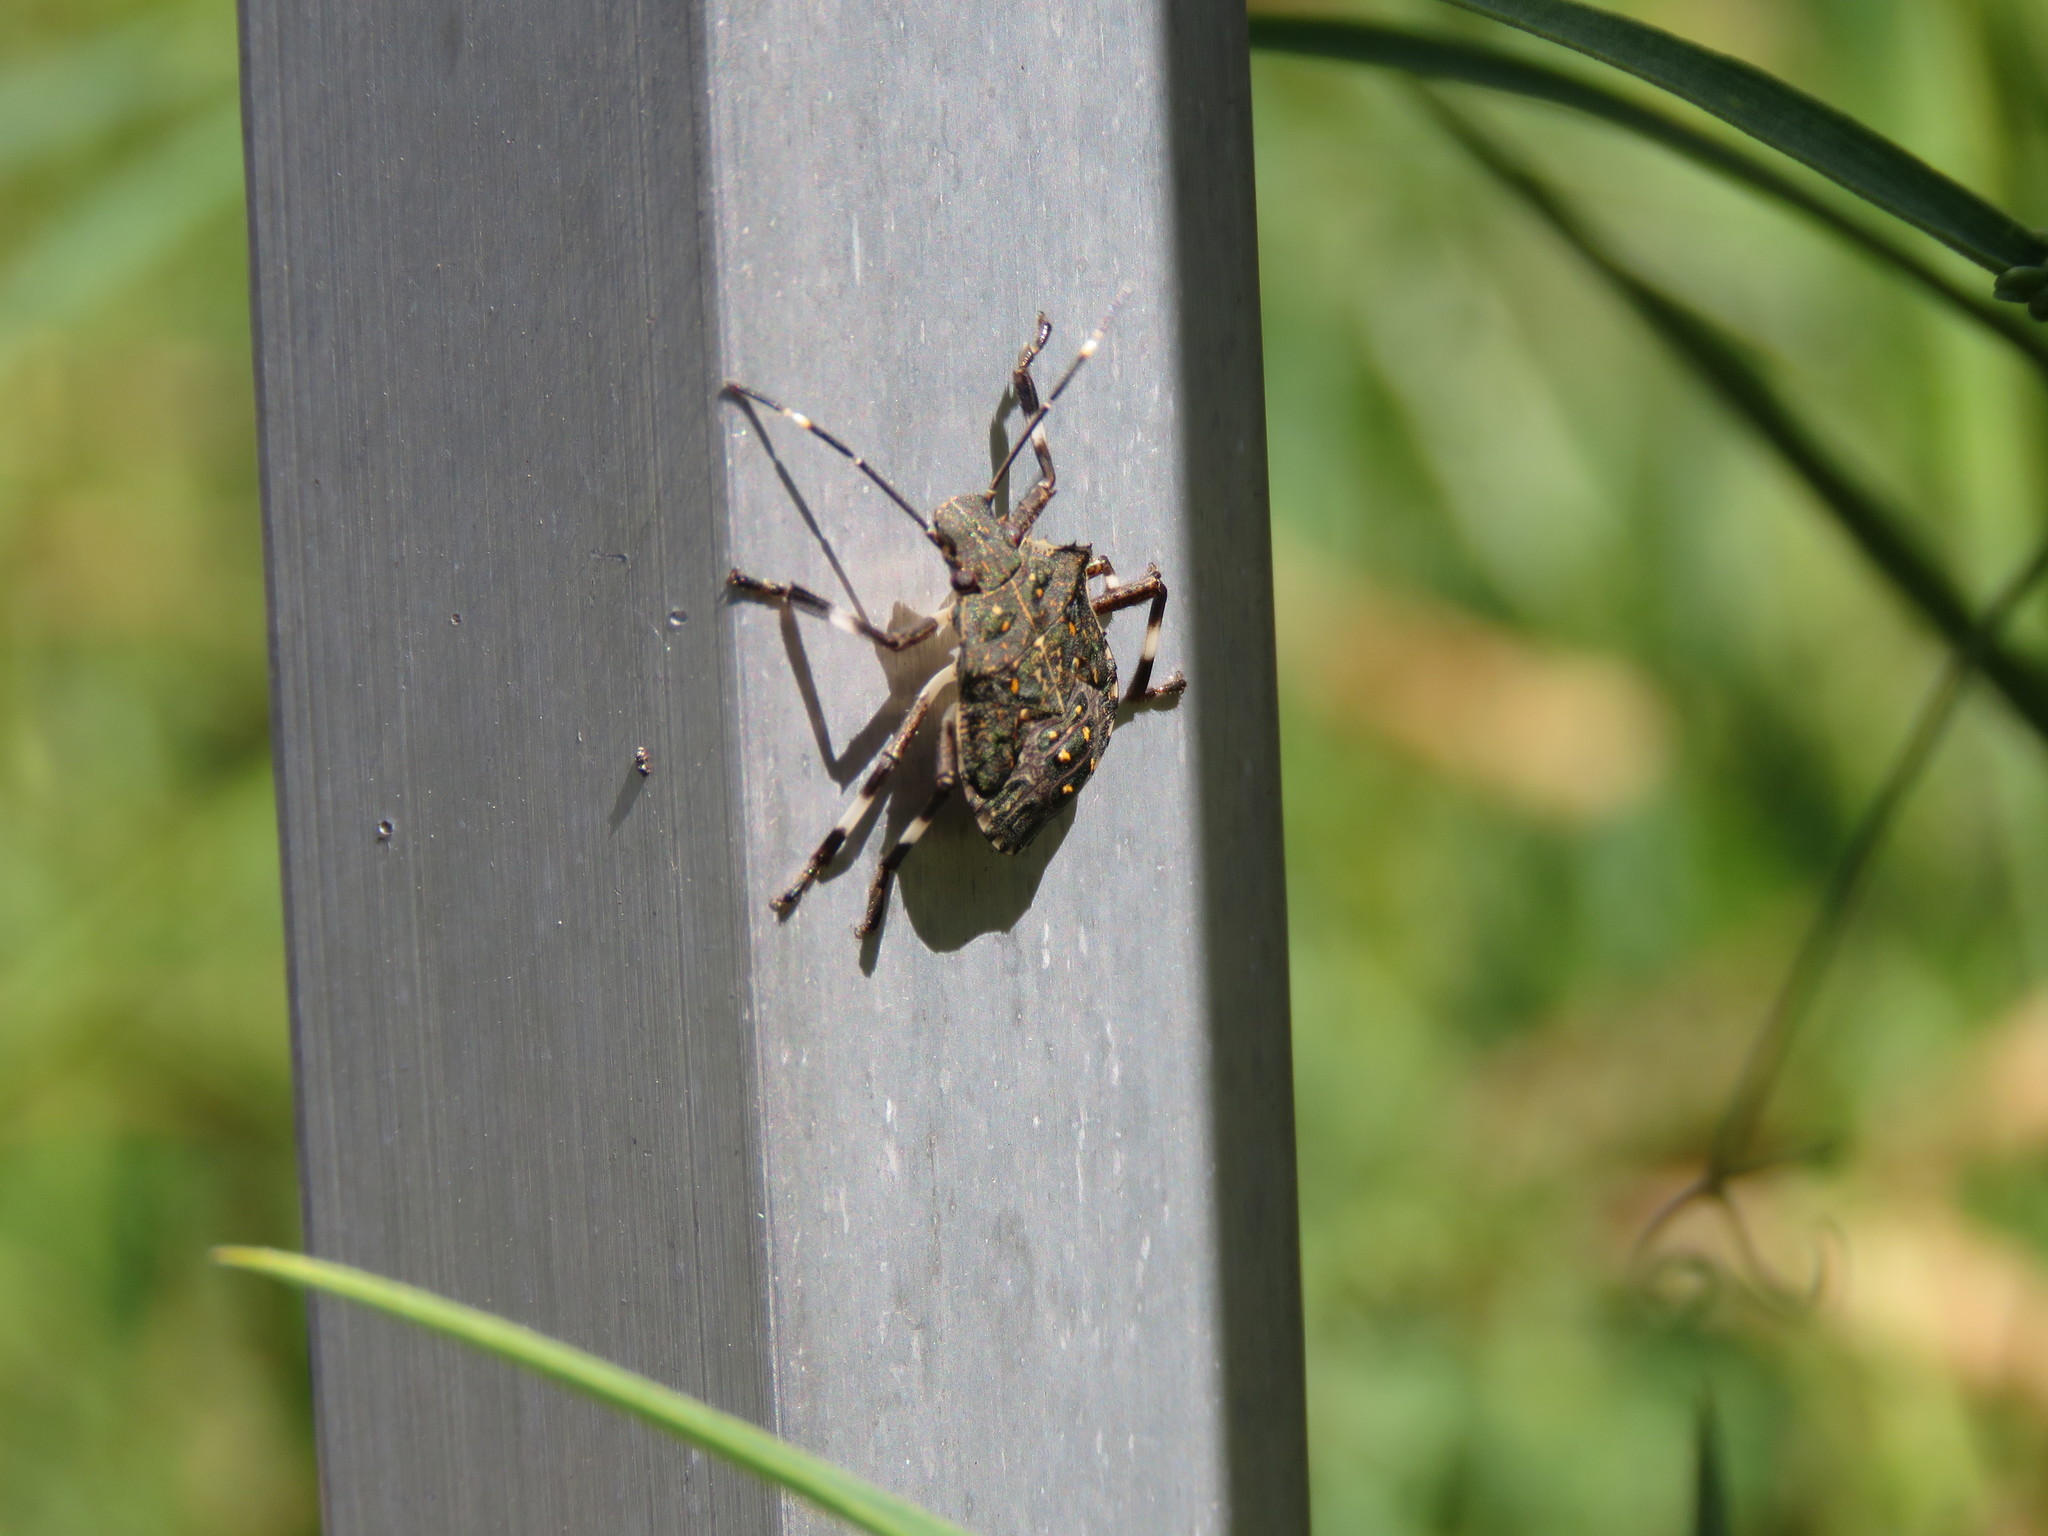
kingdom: Animalia
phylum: Arthropoda
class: Insecta
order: Hemiptera
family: Pentatomidae
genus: Halyomorpha
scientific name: Halyomorpha halys
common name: Brown marmorated stink bug
